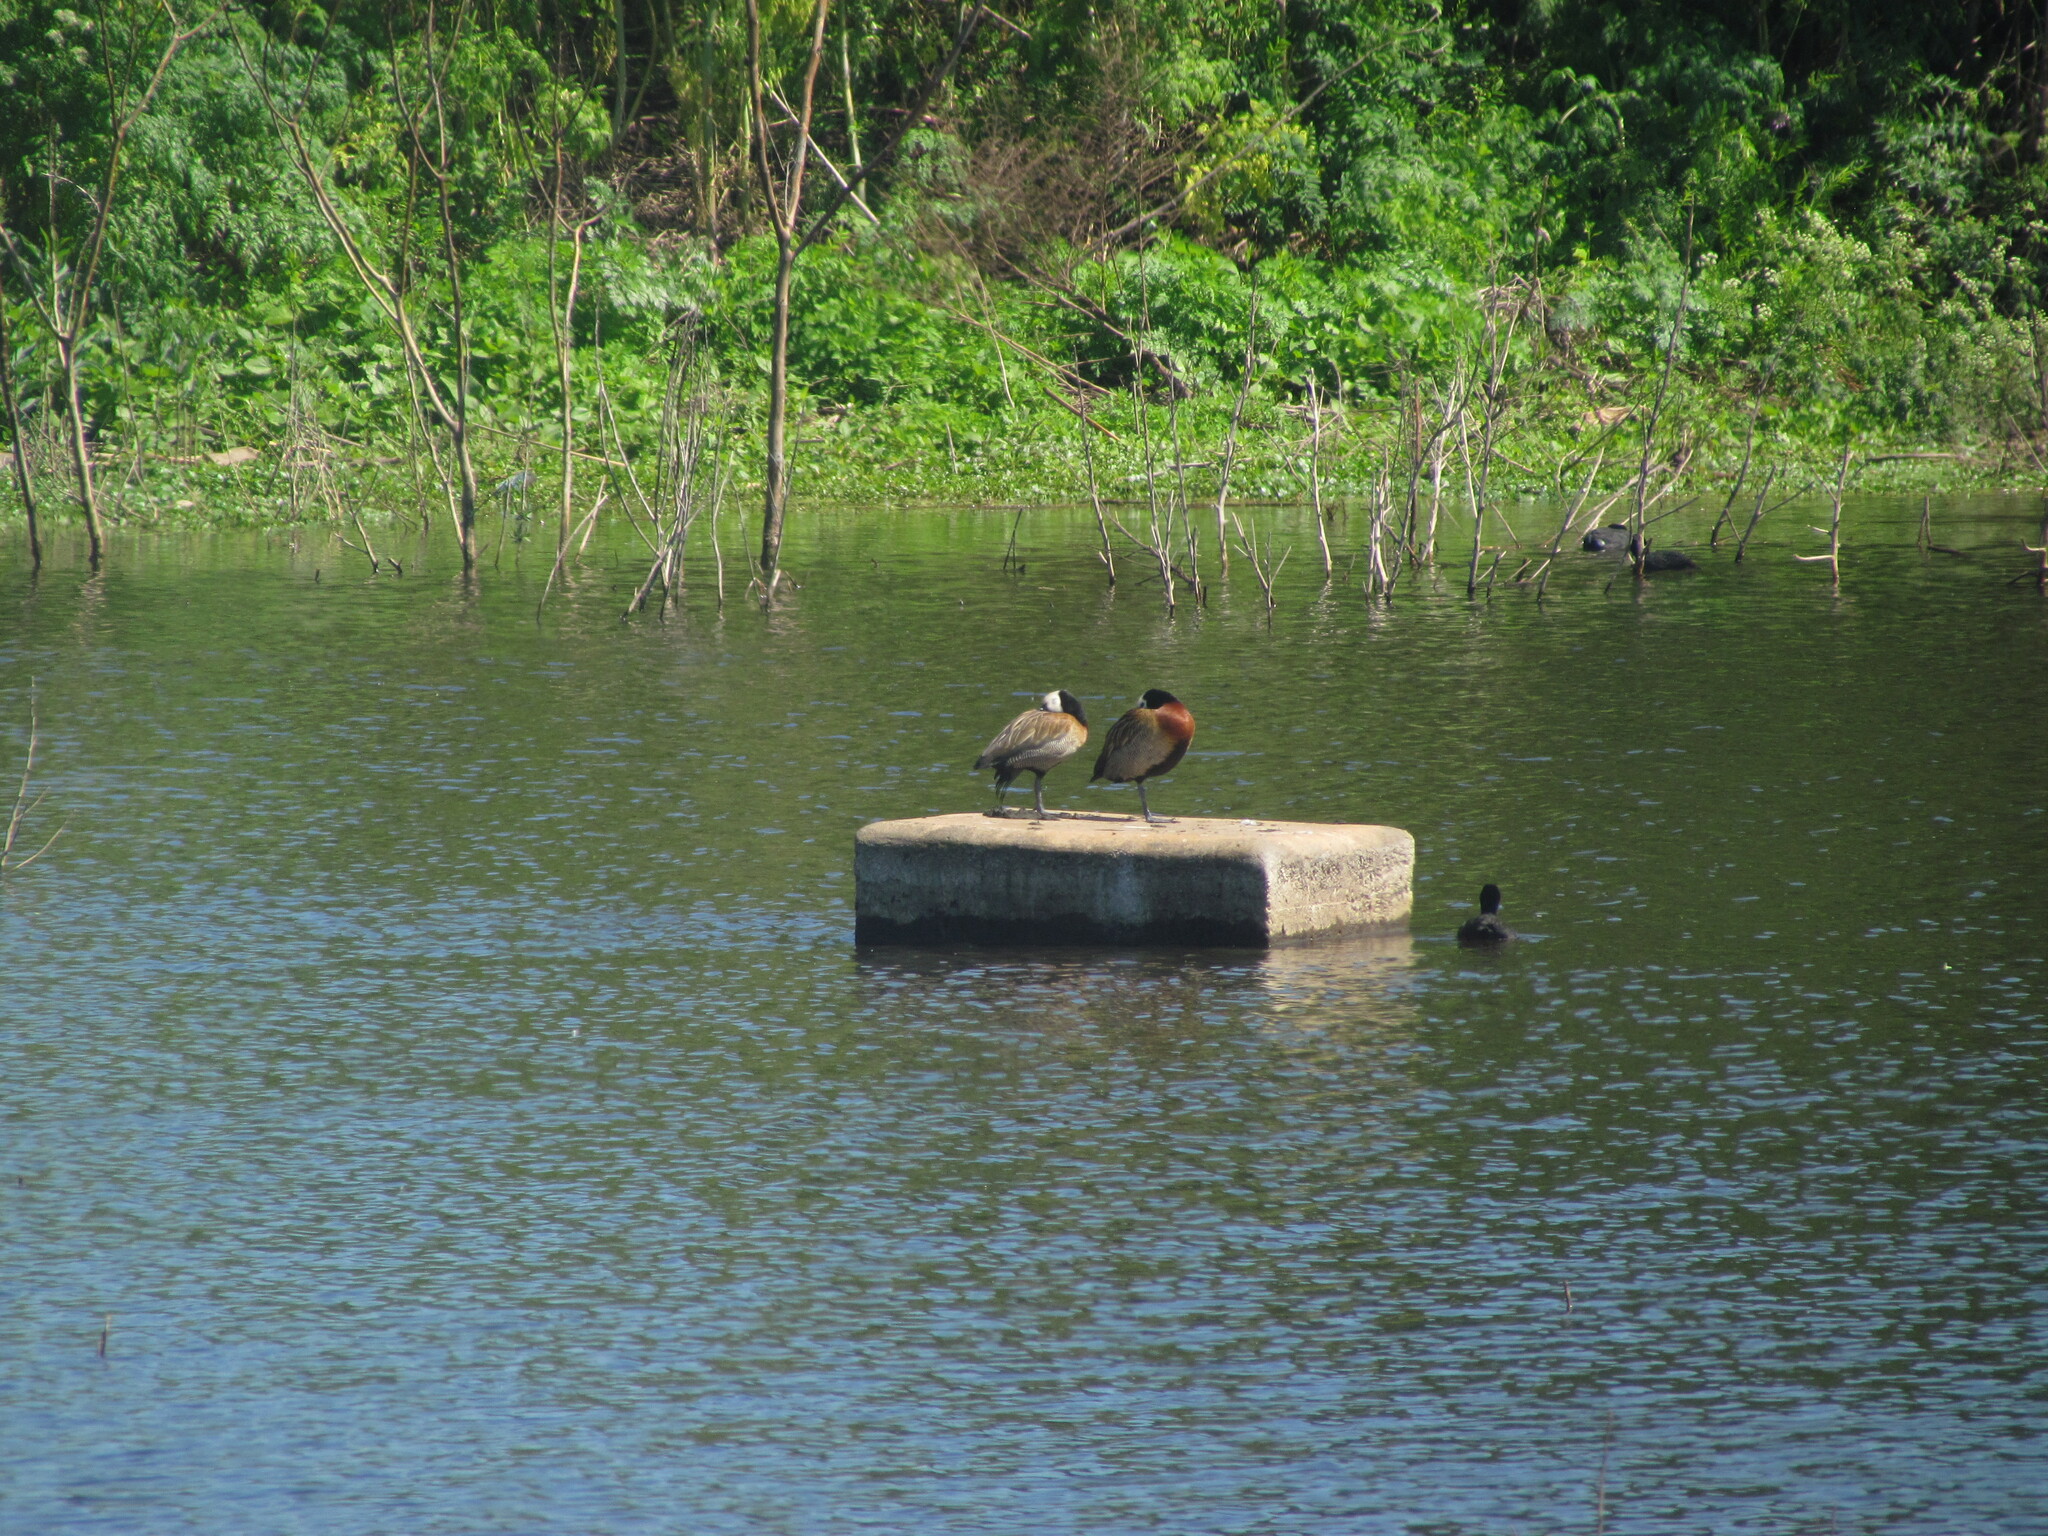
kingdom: Animalia
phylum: Chordata
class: Aves
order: Anseriformes
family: Anatidae
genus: Dendrocygna
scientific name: Dendrocygna viduata
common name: White-faced whistling duck
